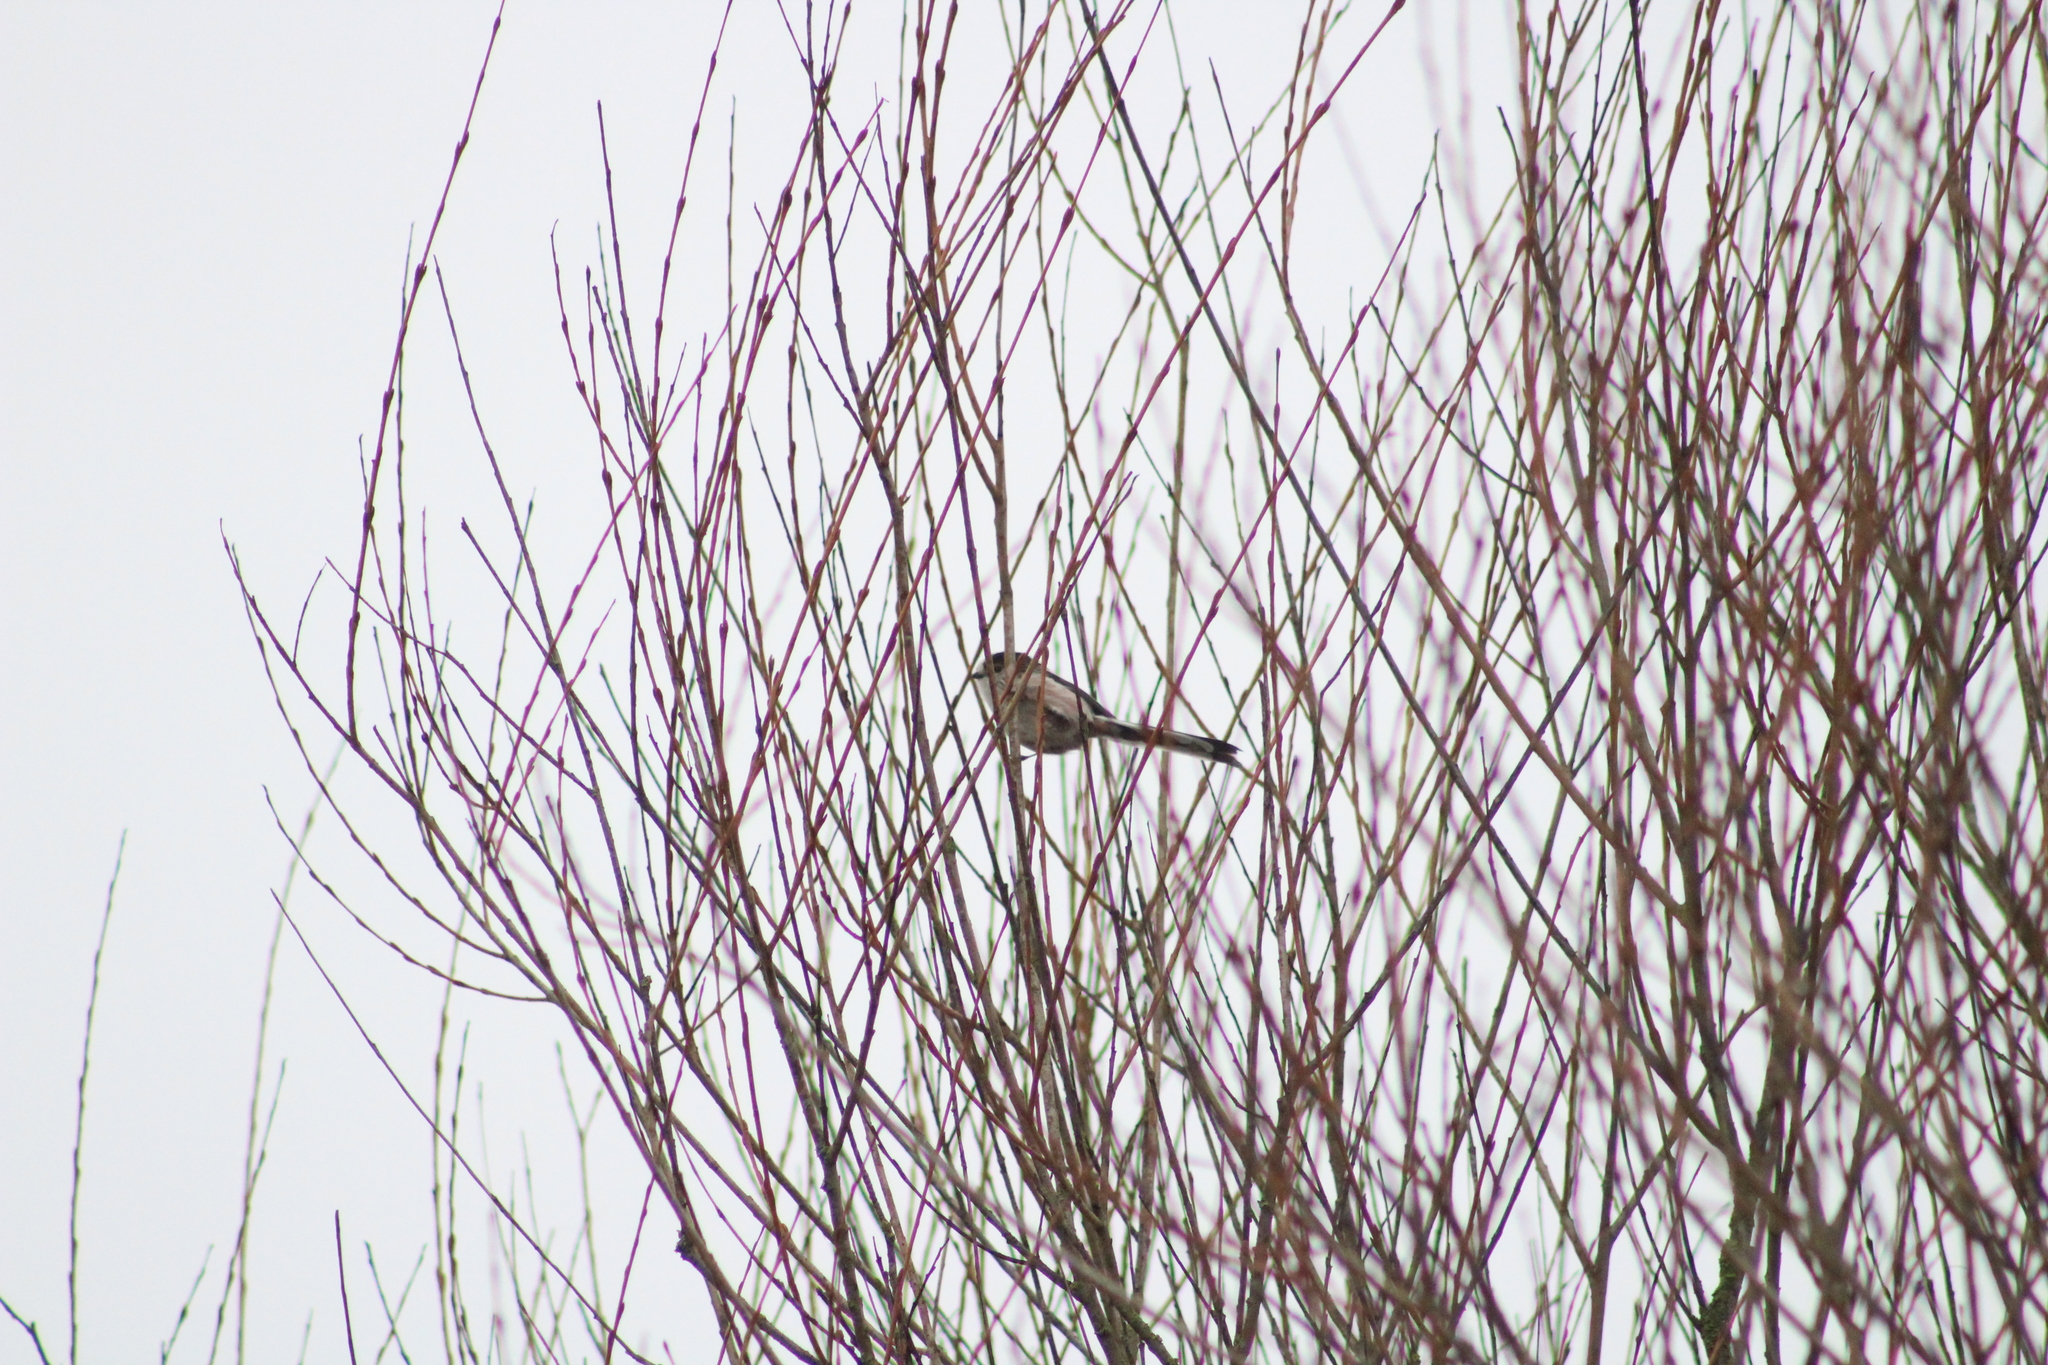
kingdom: Animalia
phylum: Chordata
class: Aves
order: Passeriformes
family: Aegithalidae
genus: Aegithalos
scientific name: Aegithalos caudatus
